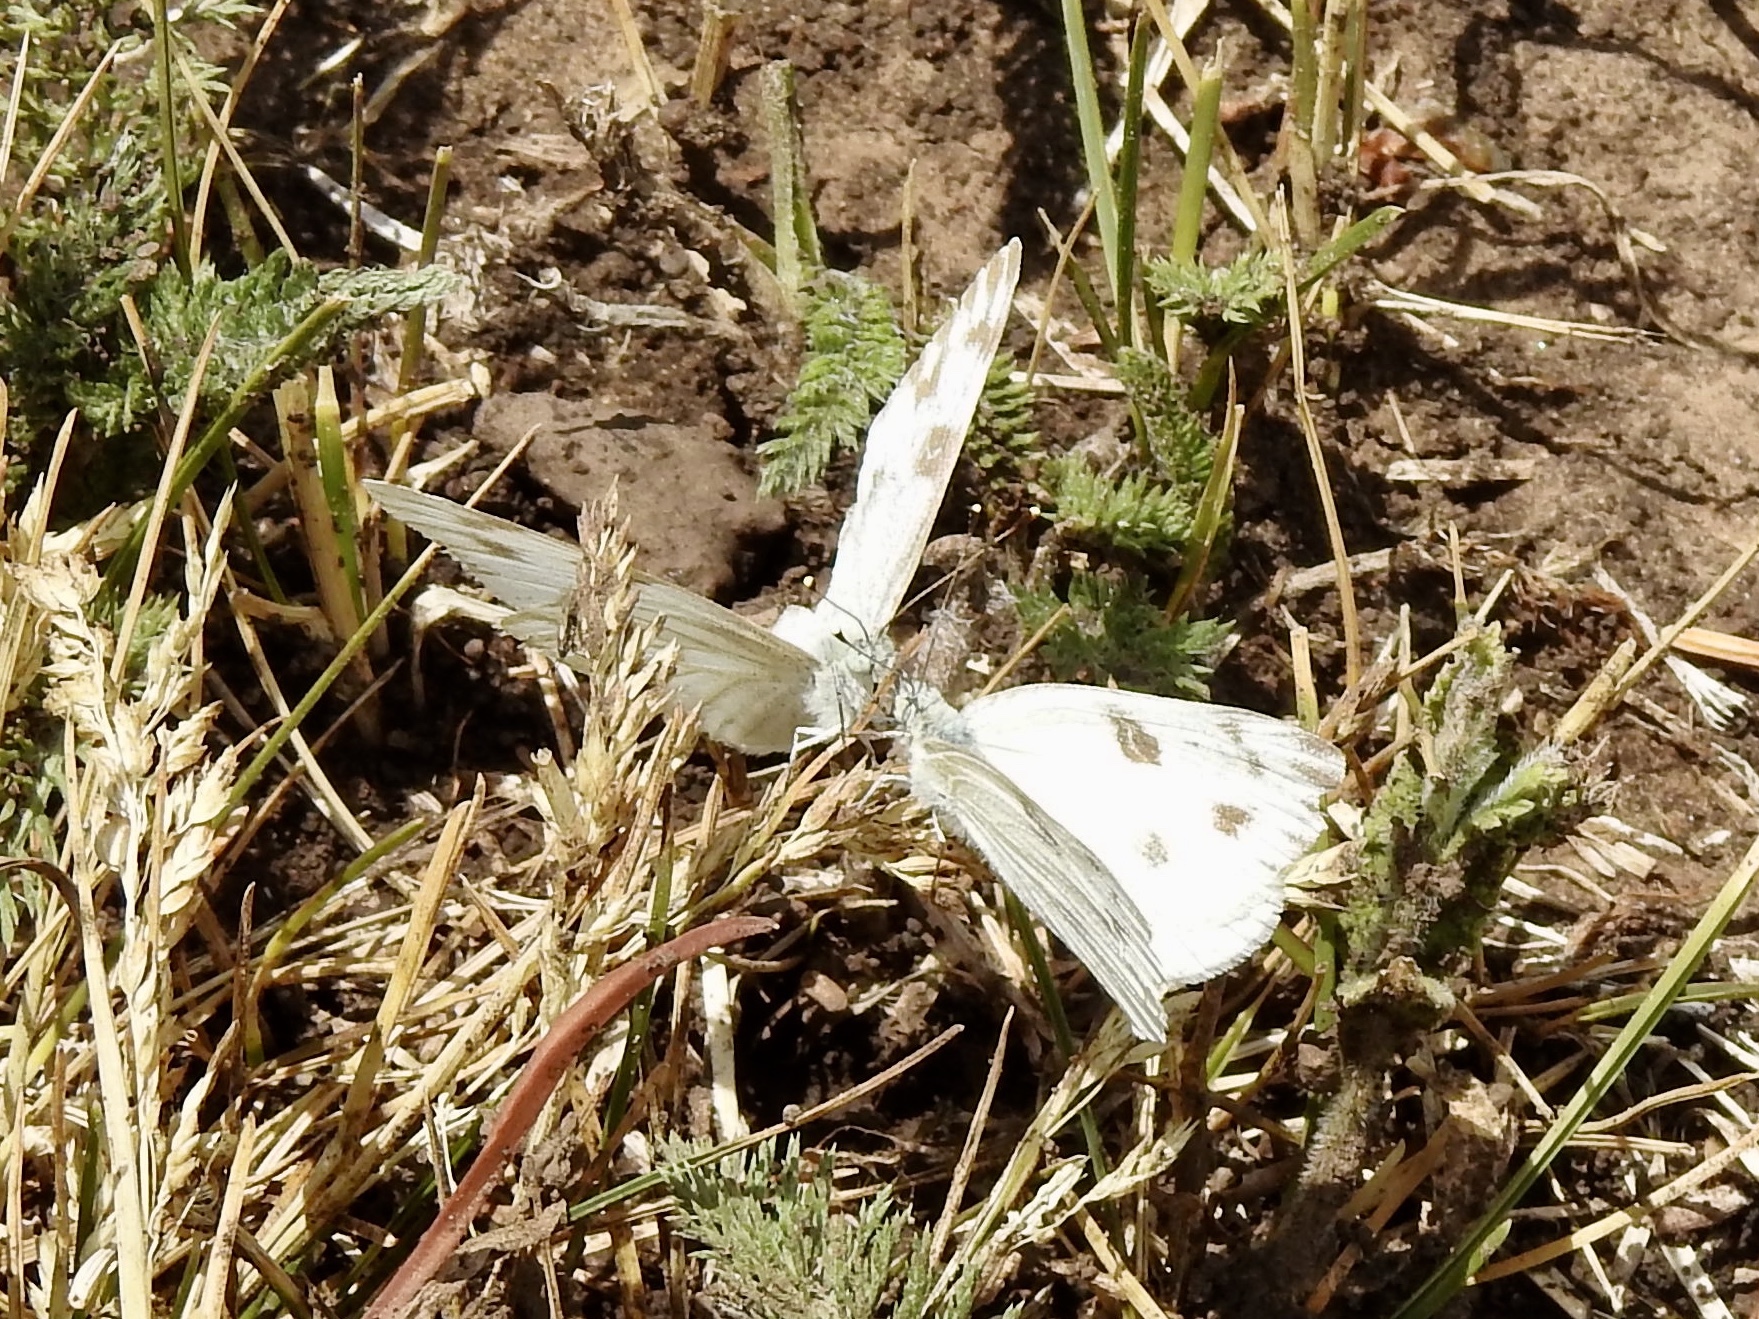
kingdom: Animalia
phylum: Arthropoda
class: Insecta
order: Lepidoptera
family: Pieridae
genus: Pontia
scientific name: Pontia protodice
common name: Checkered white
